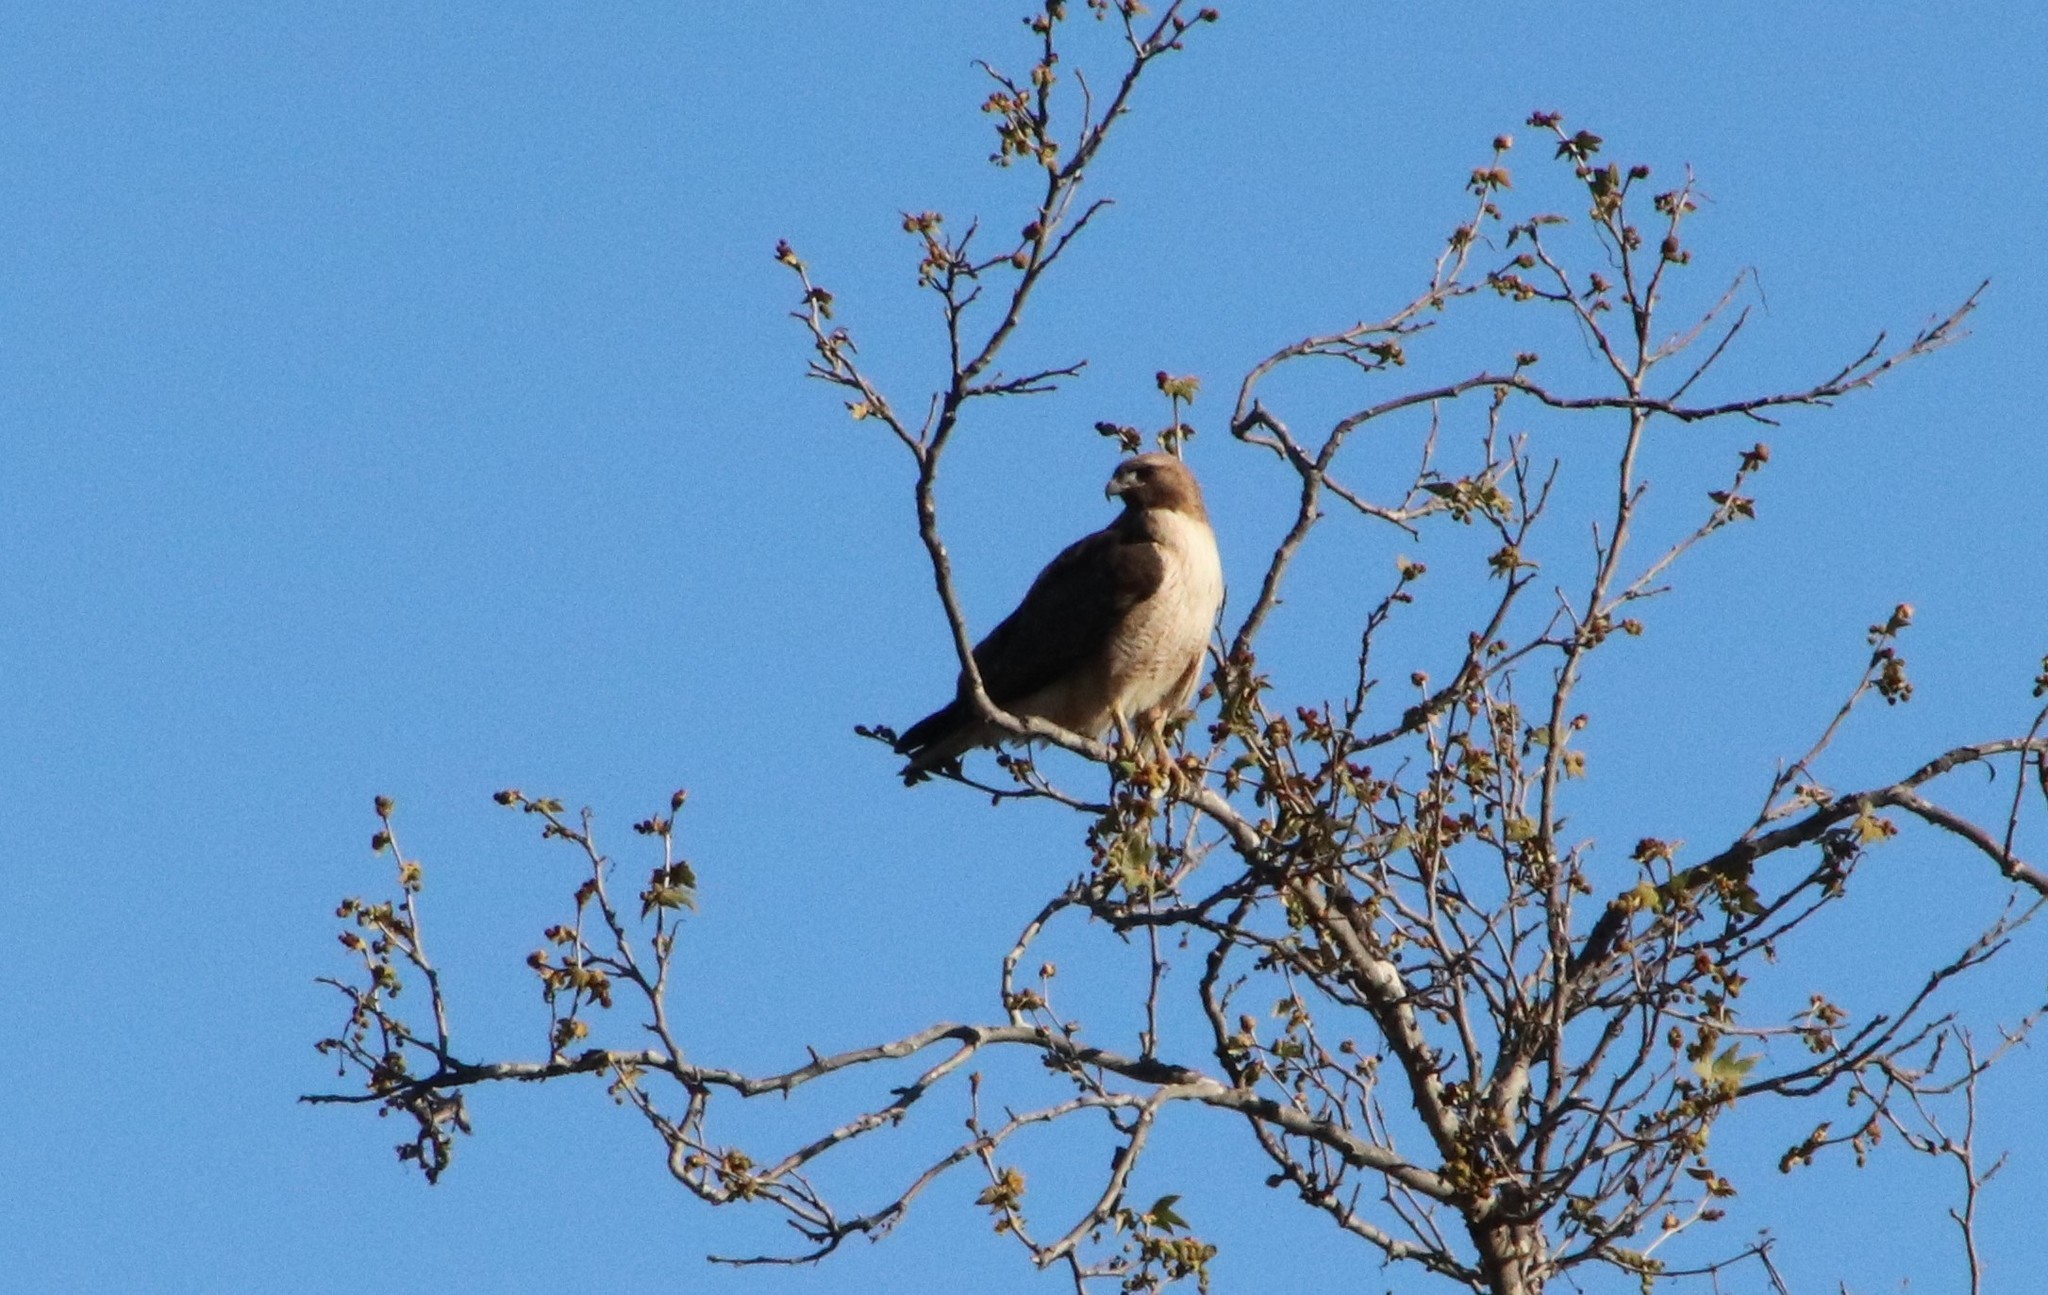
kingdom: Animalia
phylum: Chordata
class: Aves
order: Accipitriformes
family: Accipitridae
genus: Buteo
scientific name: Buteo jamaicensis
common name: Red-tailed hawk
